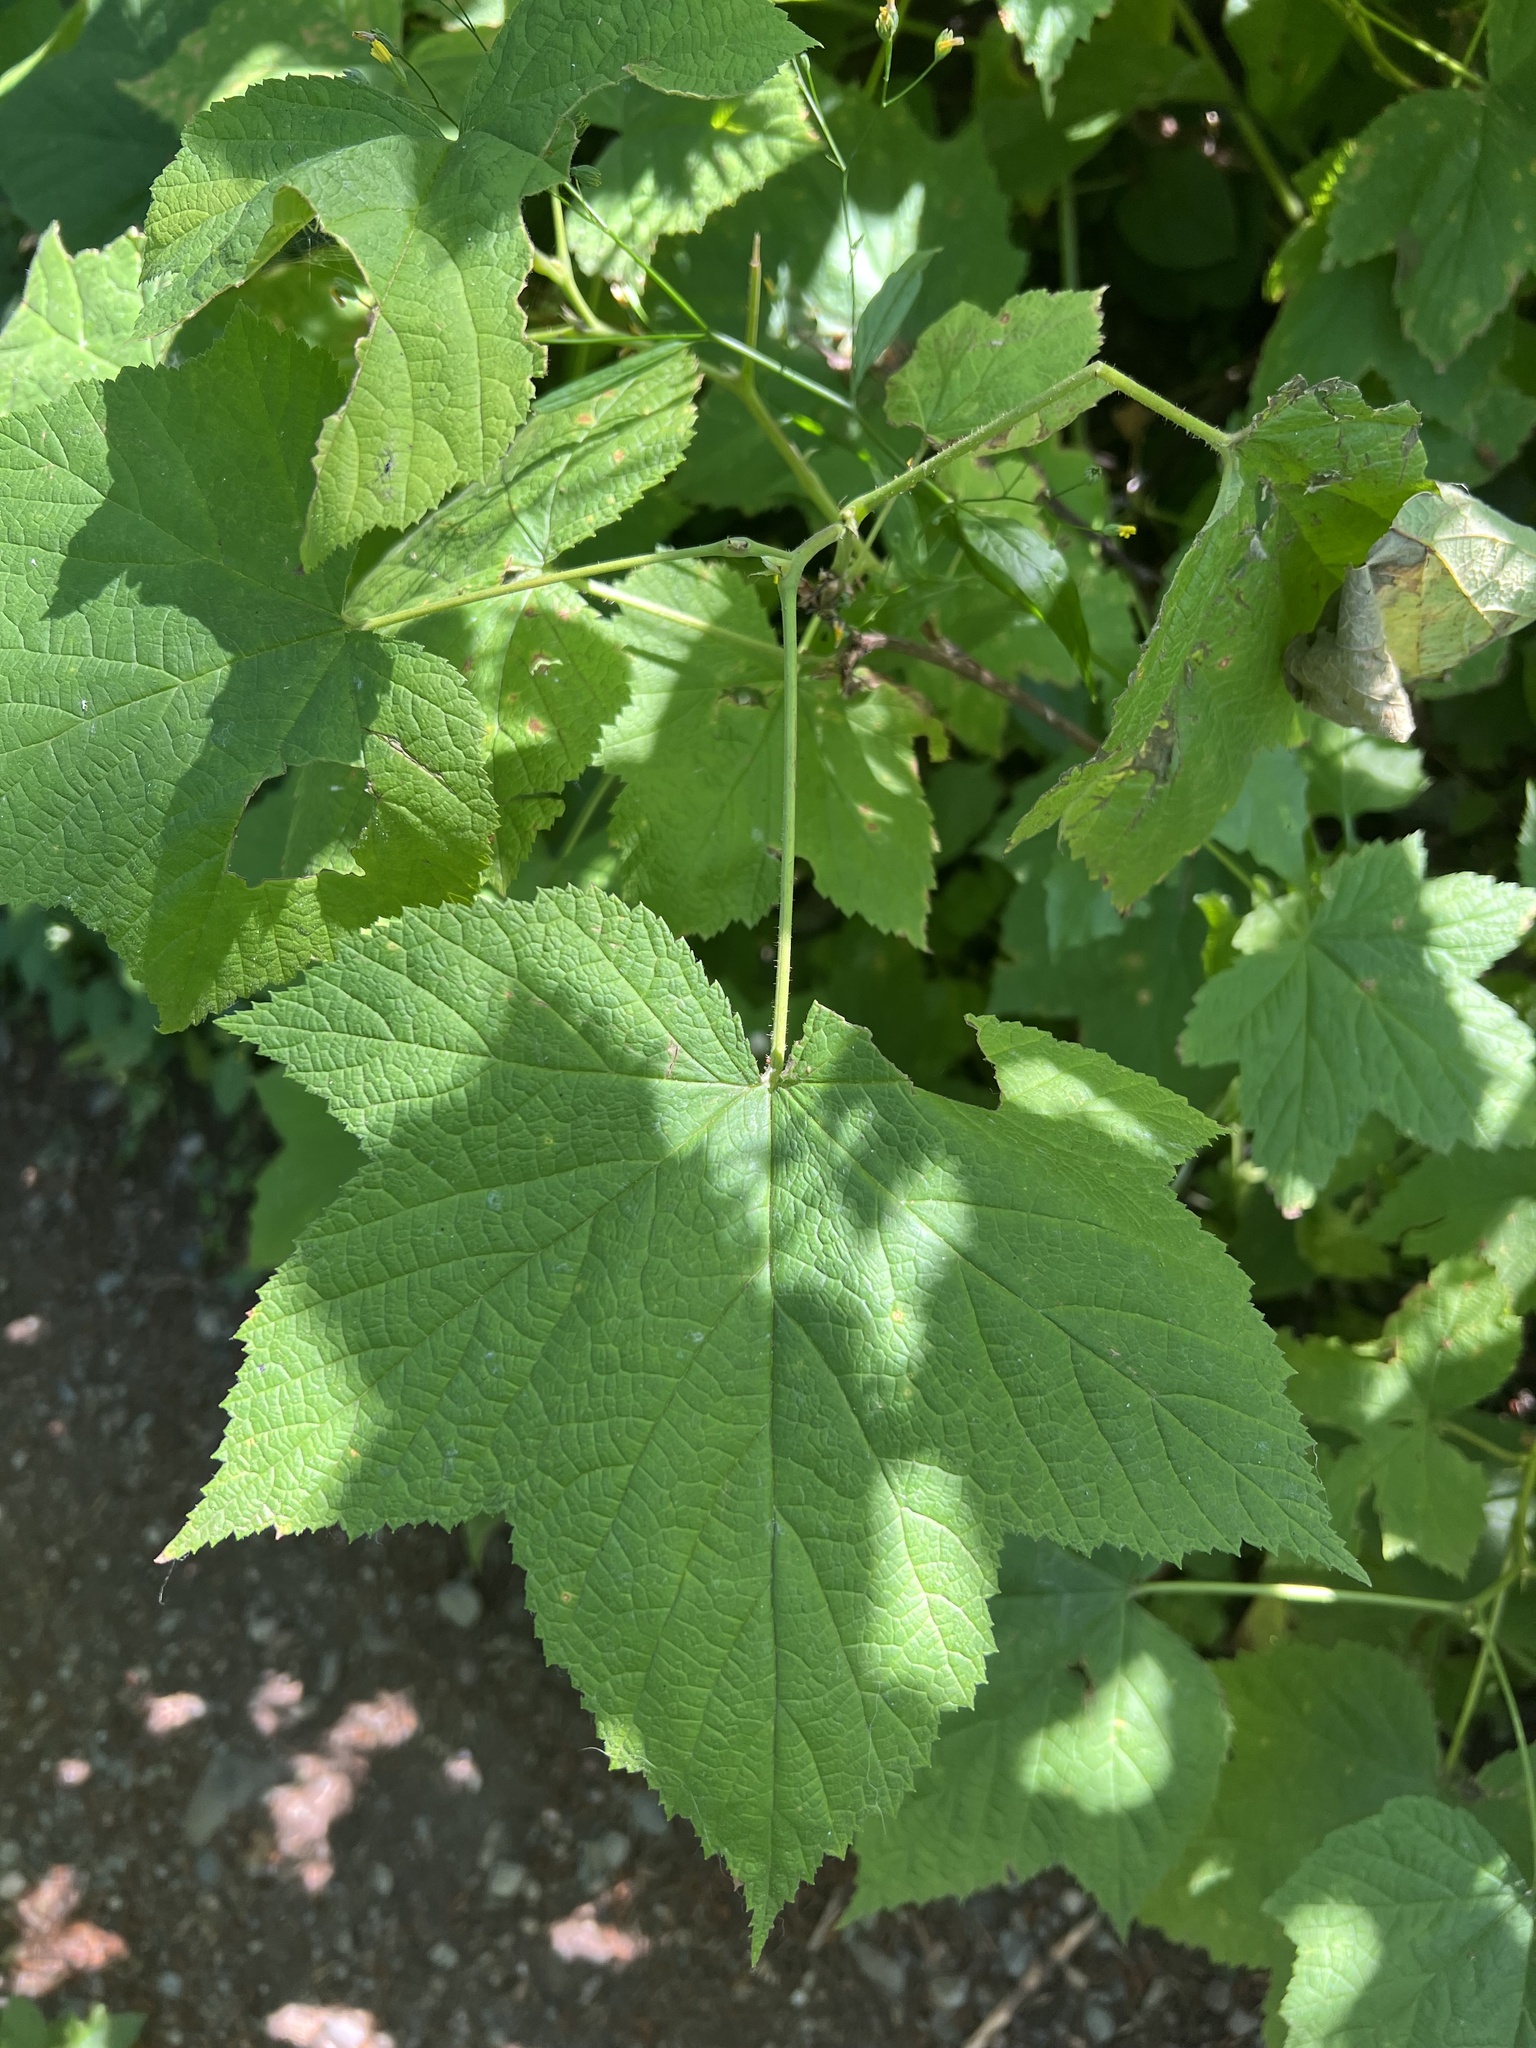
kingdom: Plantae
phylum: Tracheophyta
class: Magnoliopsida
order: Rosales
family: Rosaceae
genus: Rubus
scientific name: Rubus parviflorus
